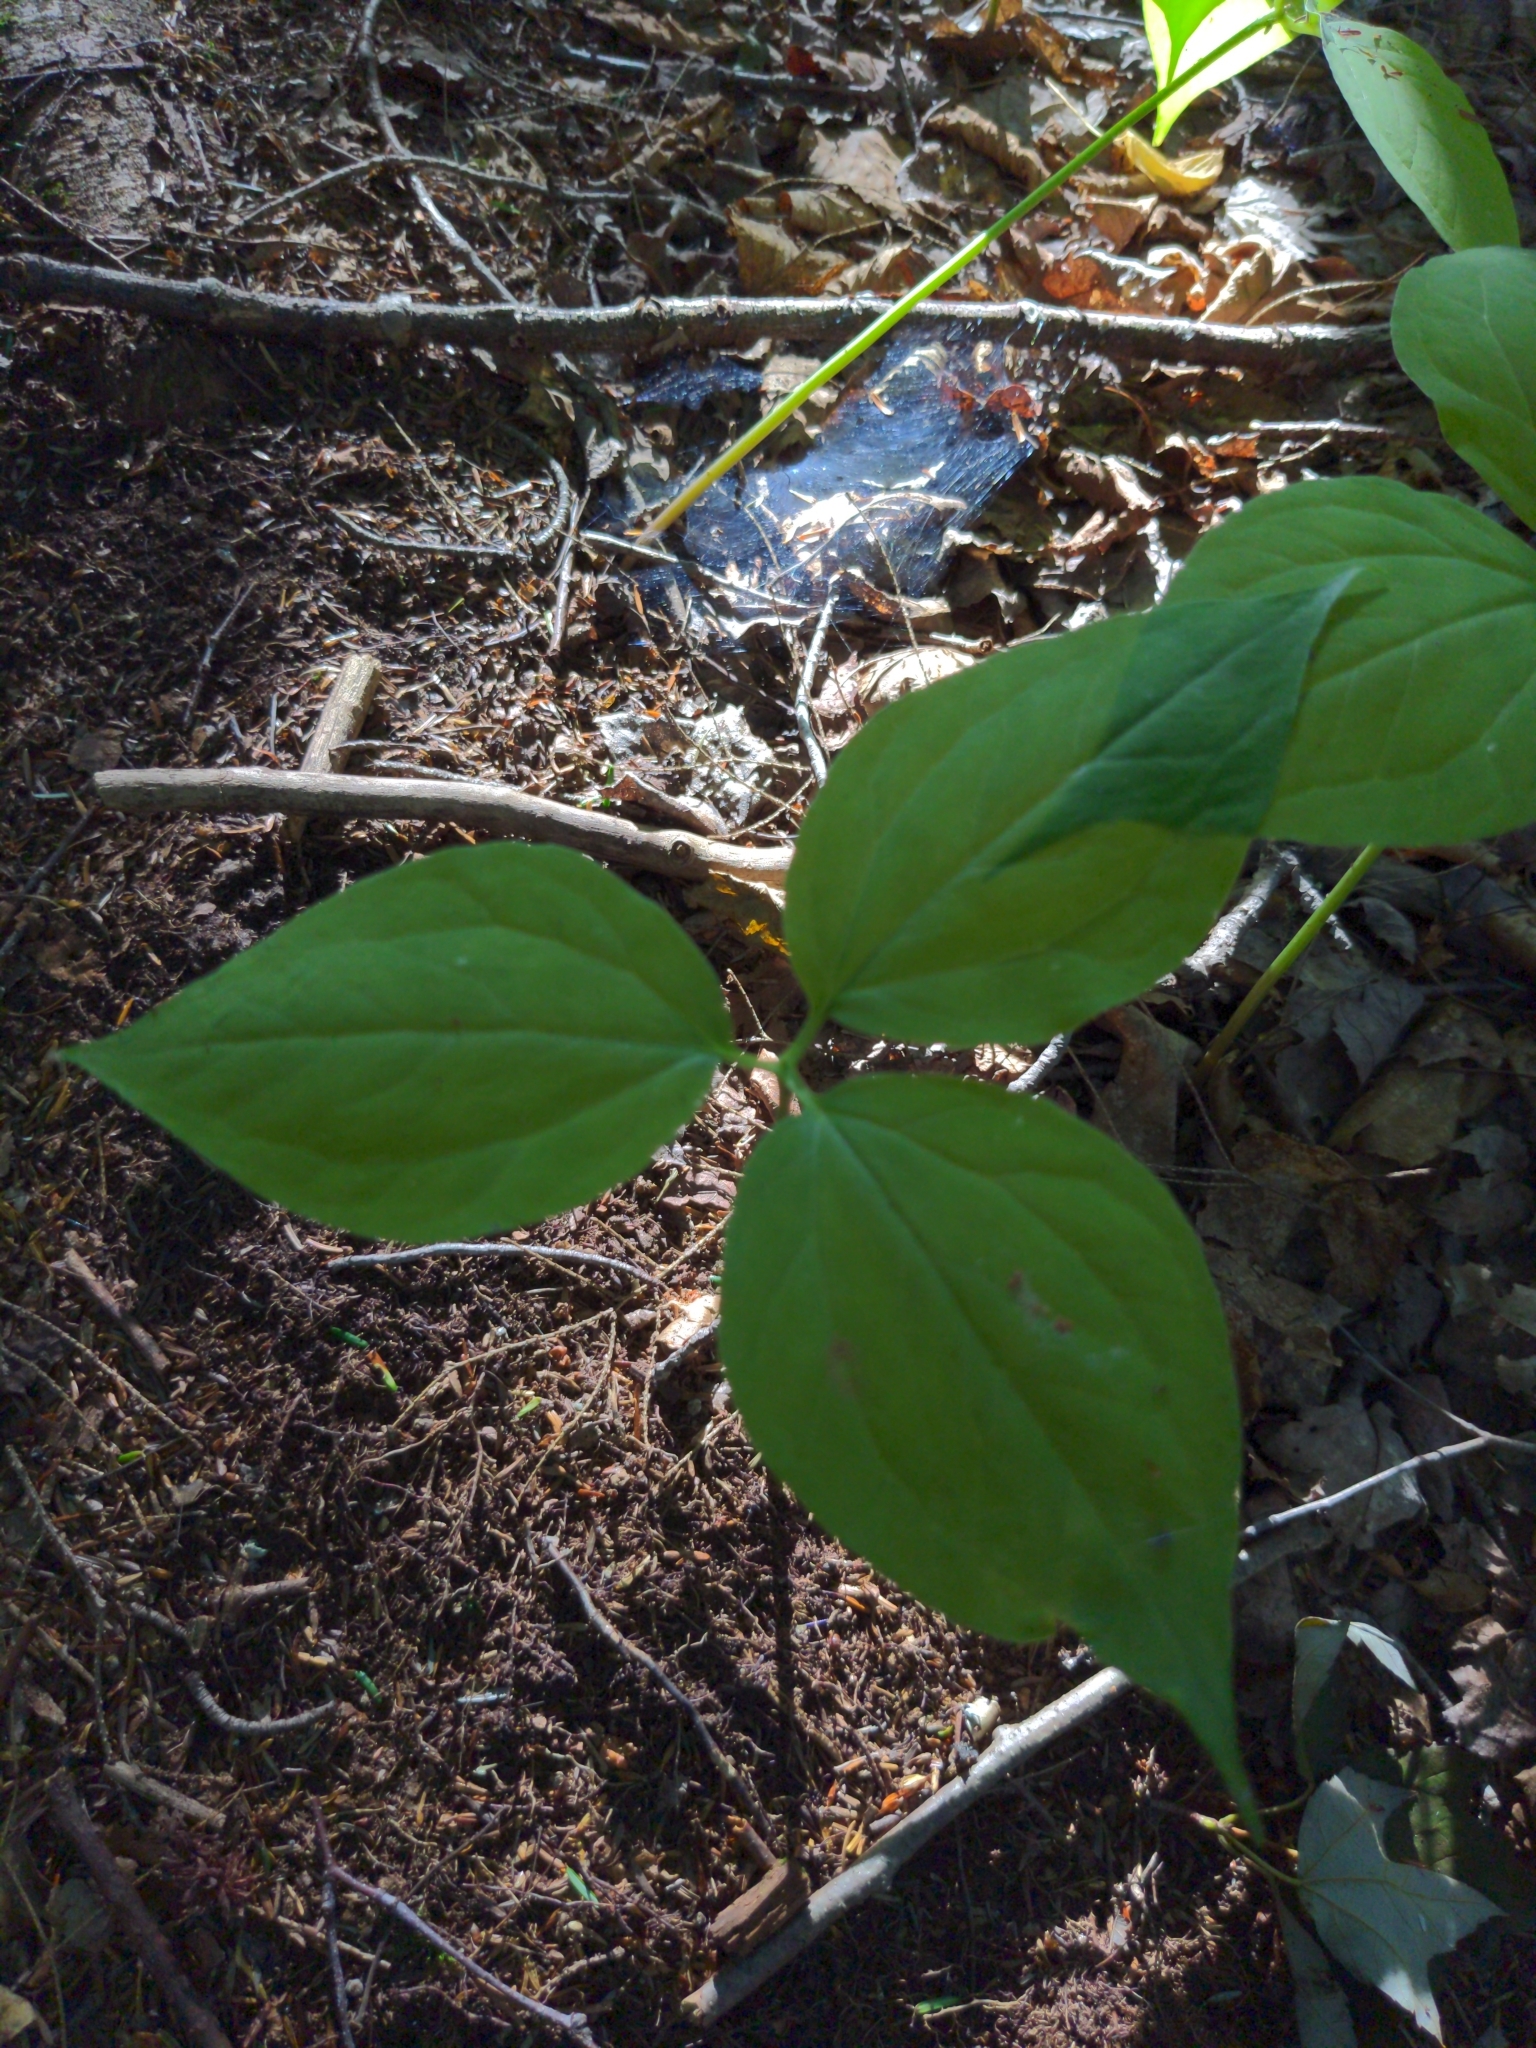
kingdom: Plantae
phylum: Tracheophyta
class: Liliopsida
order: Liliales
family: Melanthiaceae
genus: Trillium
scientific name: Trillium undulatum
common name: Paint trillium
